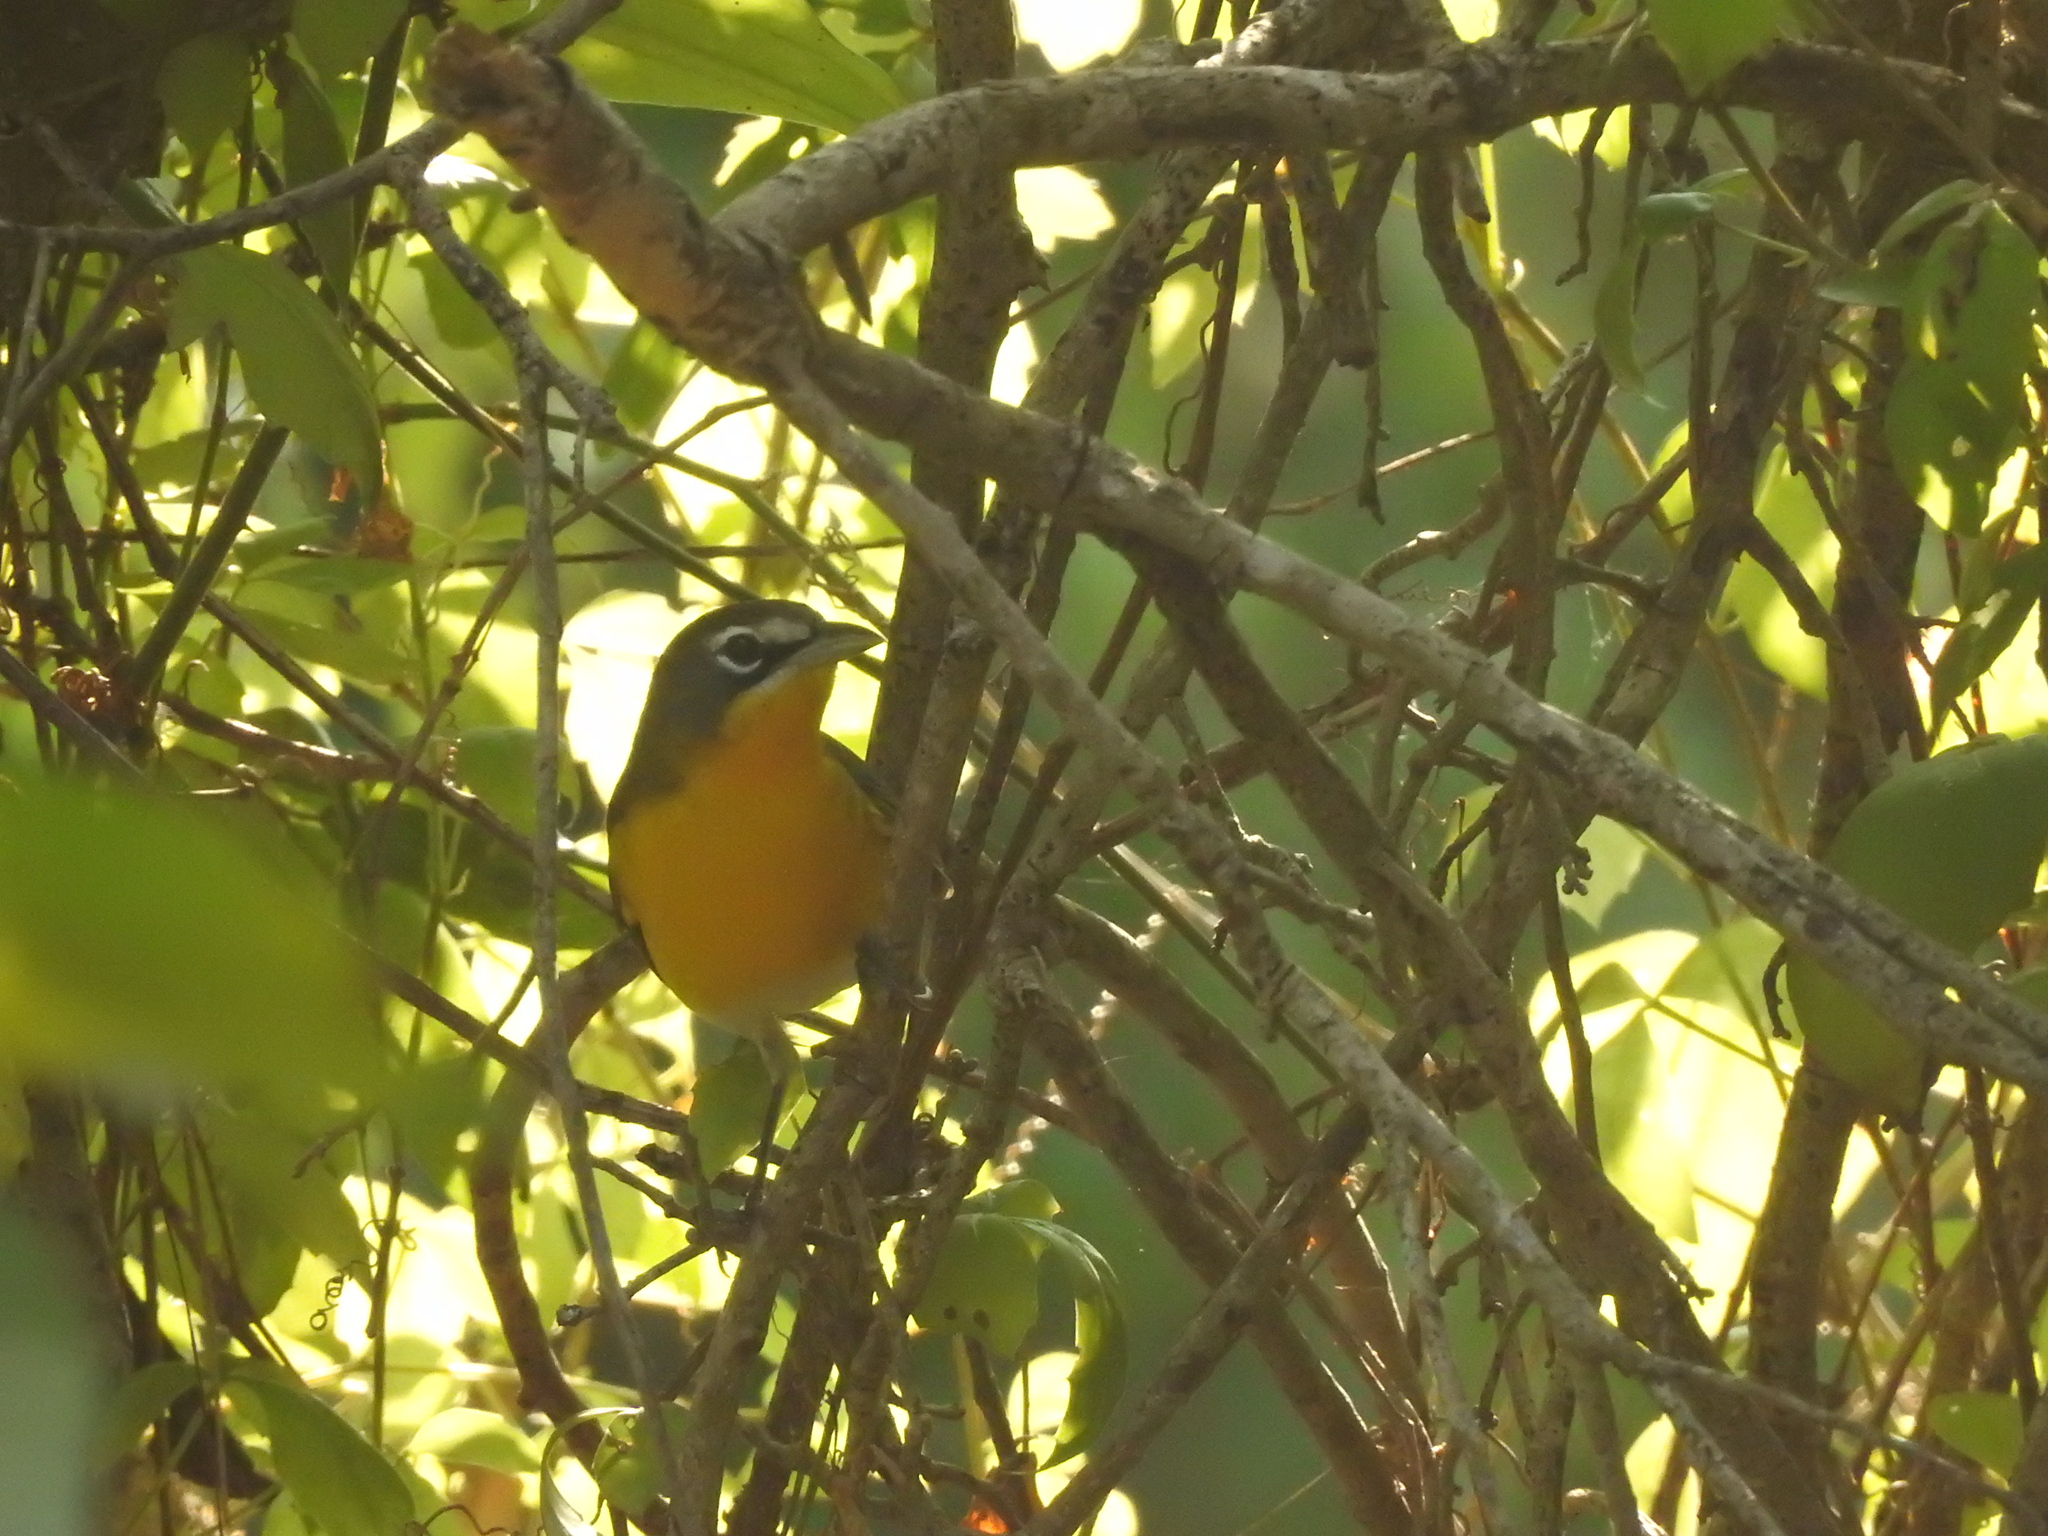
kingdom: Animalia
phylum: Chordata
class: Aves
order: Passeriformes
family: Parulidae
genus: Icteria
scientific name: Icteria virens
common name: Yellow-breasted chat
